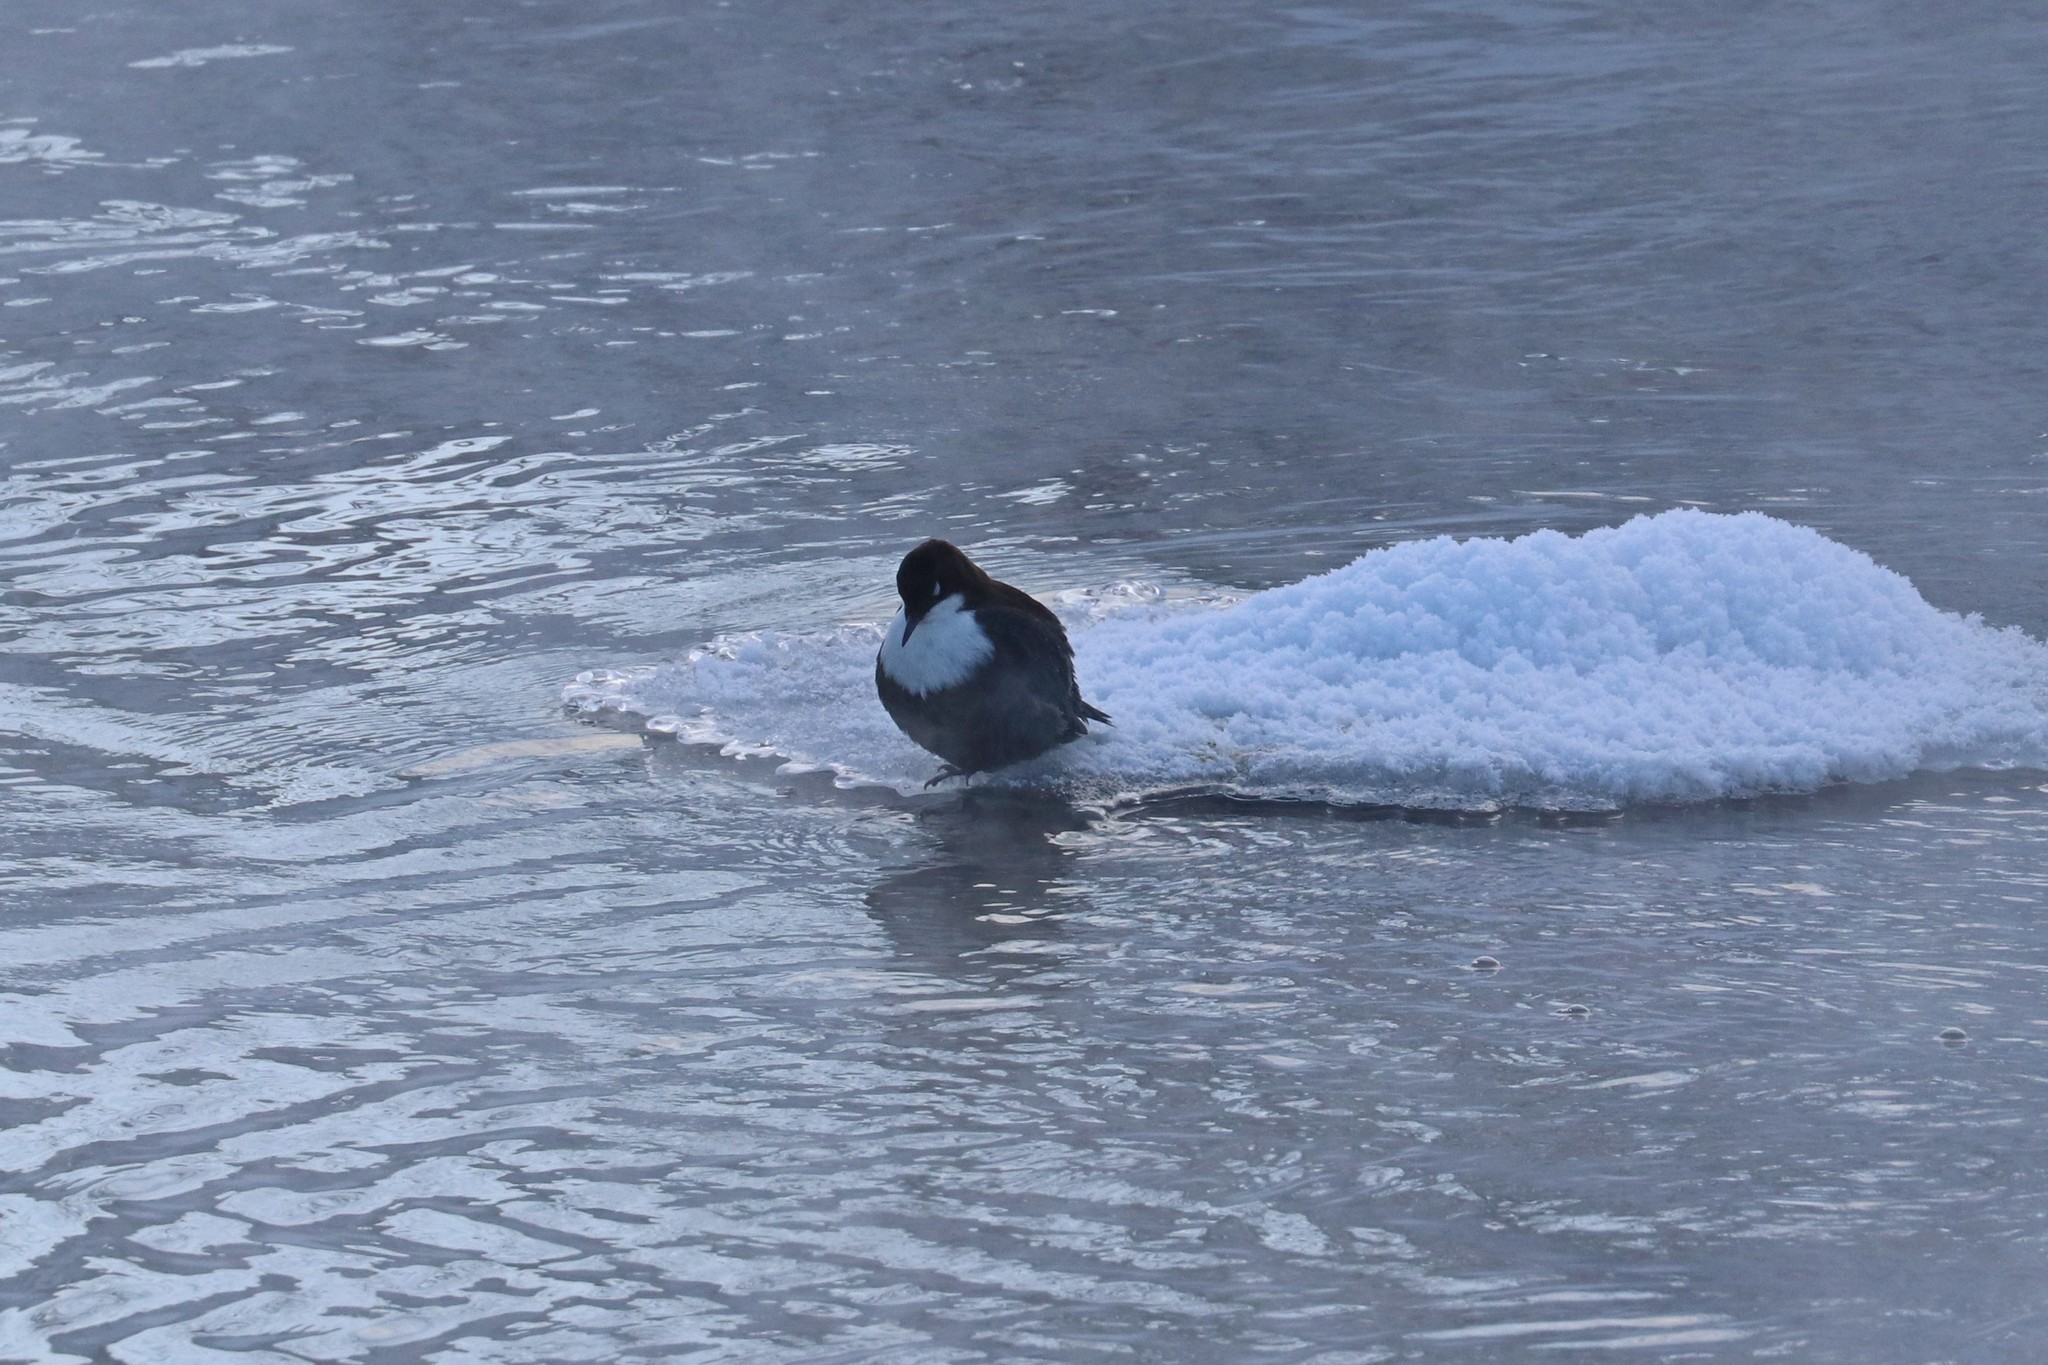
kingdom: Animalia
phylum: Chordata
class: Aves
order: Passeriformes
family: Cinclidae
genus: Cinclus
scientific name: Cinclus cinclus
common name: White-throated dipper
